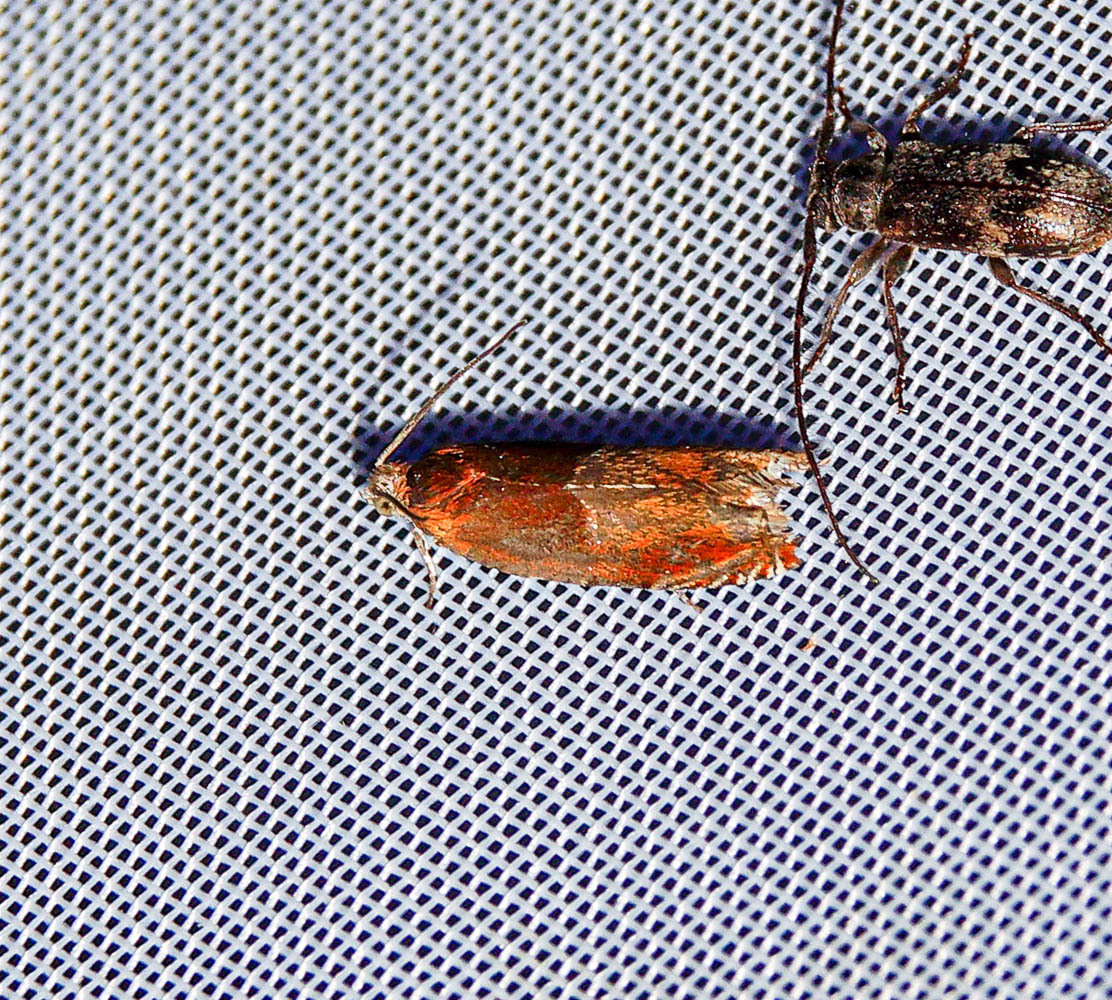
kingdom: Animalia
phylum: Arthropoda
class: Insecta
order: Lepidoptera
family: Tortricidae
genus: Ancylis
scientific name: Ancylis mitterbacheriana
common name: Red roller
